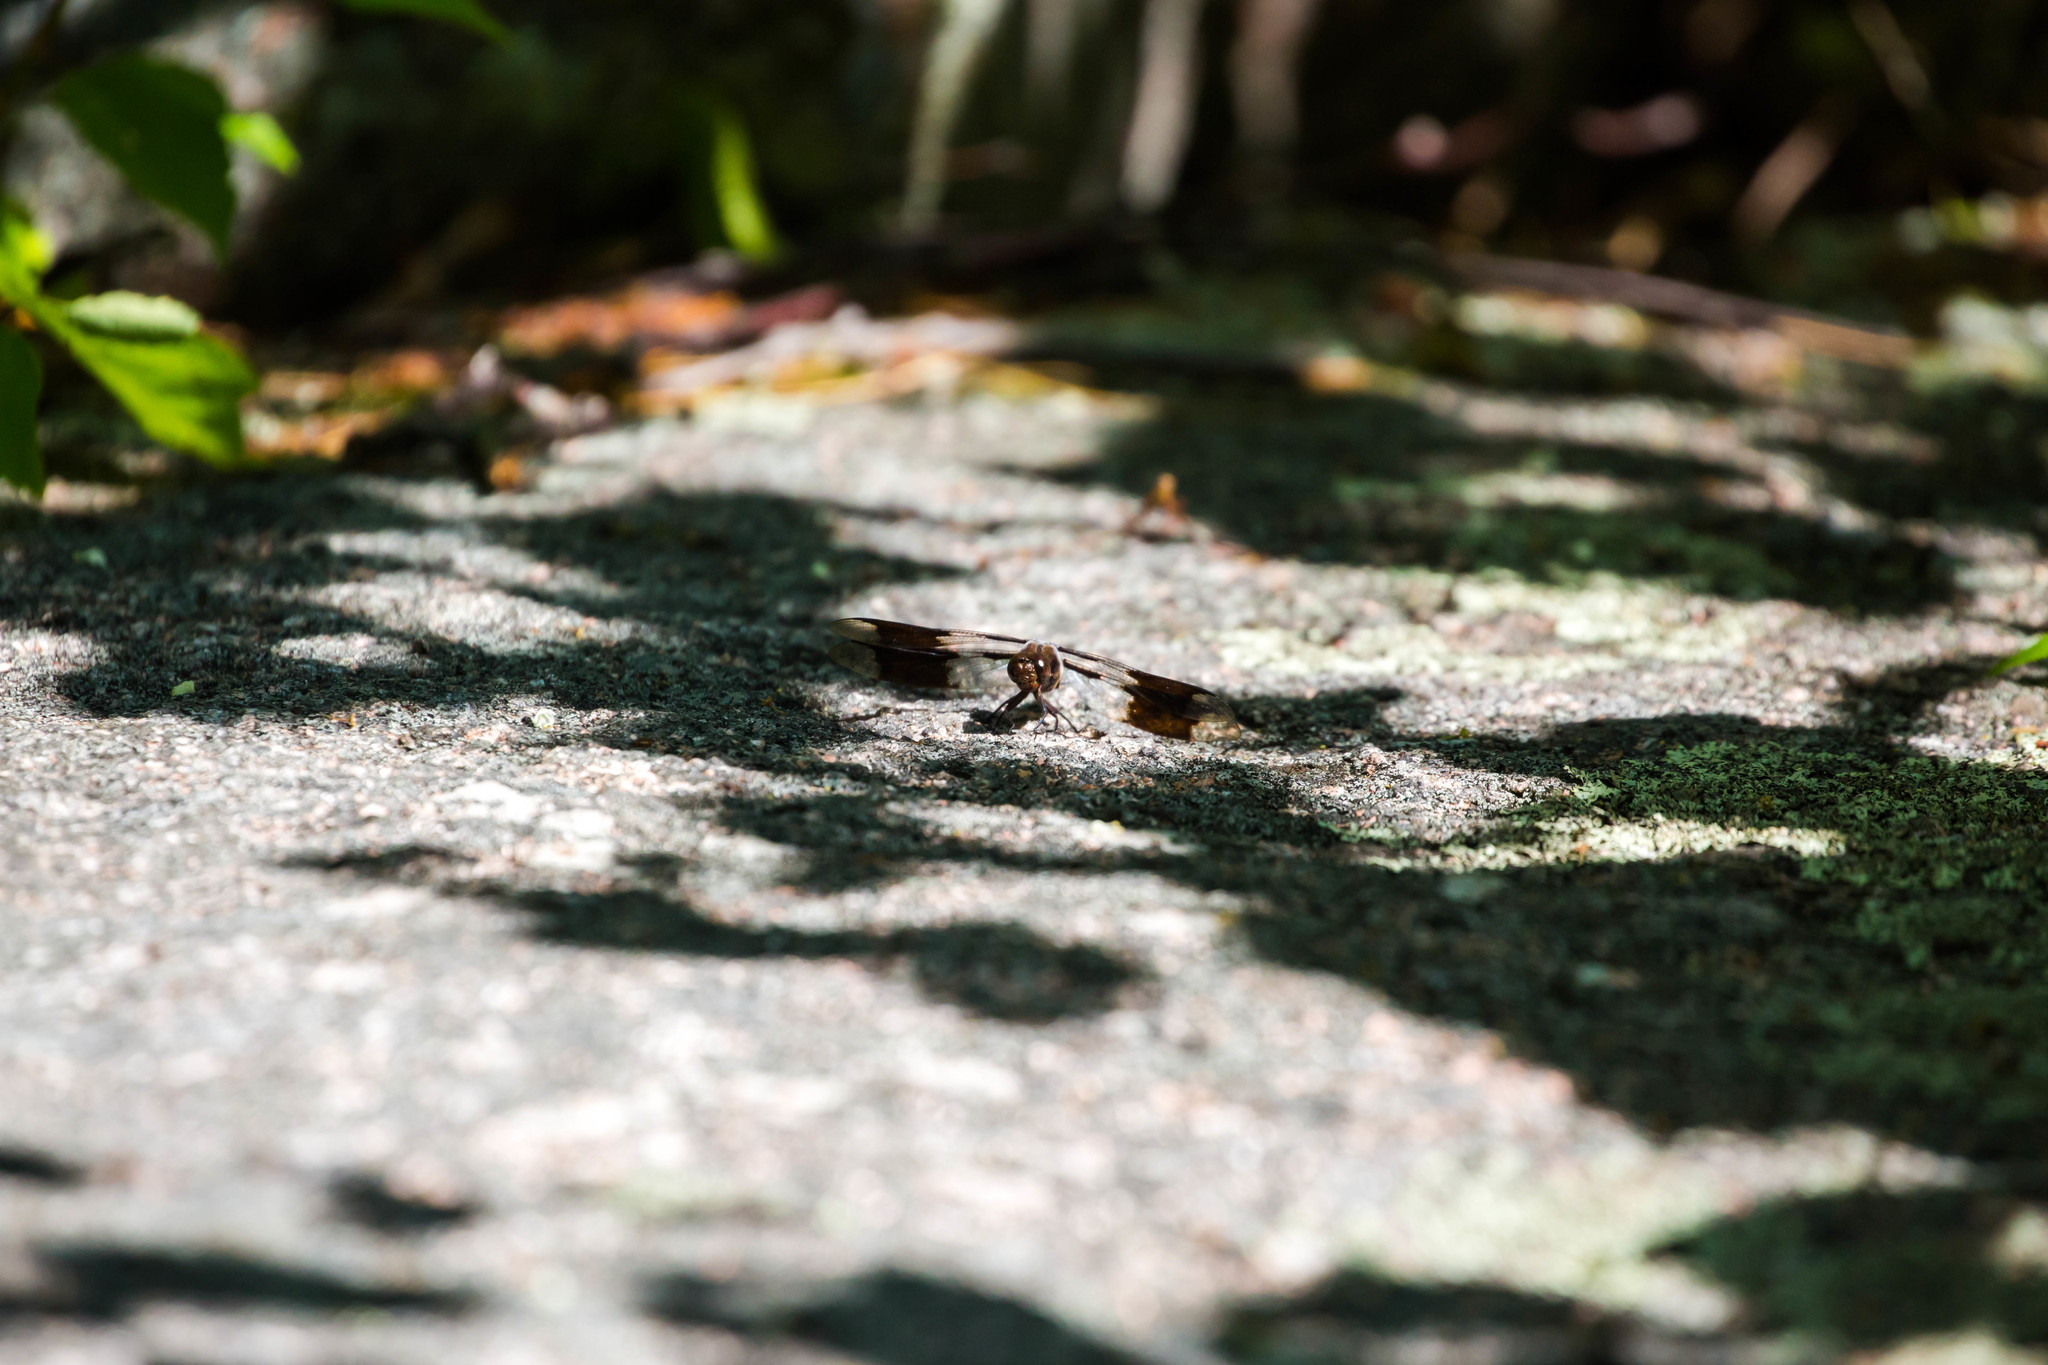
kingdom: Animalia
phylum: Arthropoda
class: Insecta
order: Odonata
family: Libellulidae
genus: Plathemis
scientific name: Plathemis lydia
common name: Common whitetail
